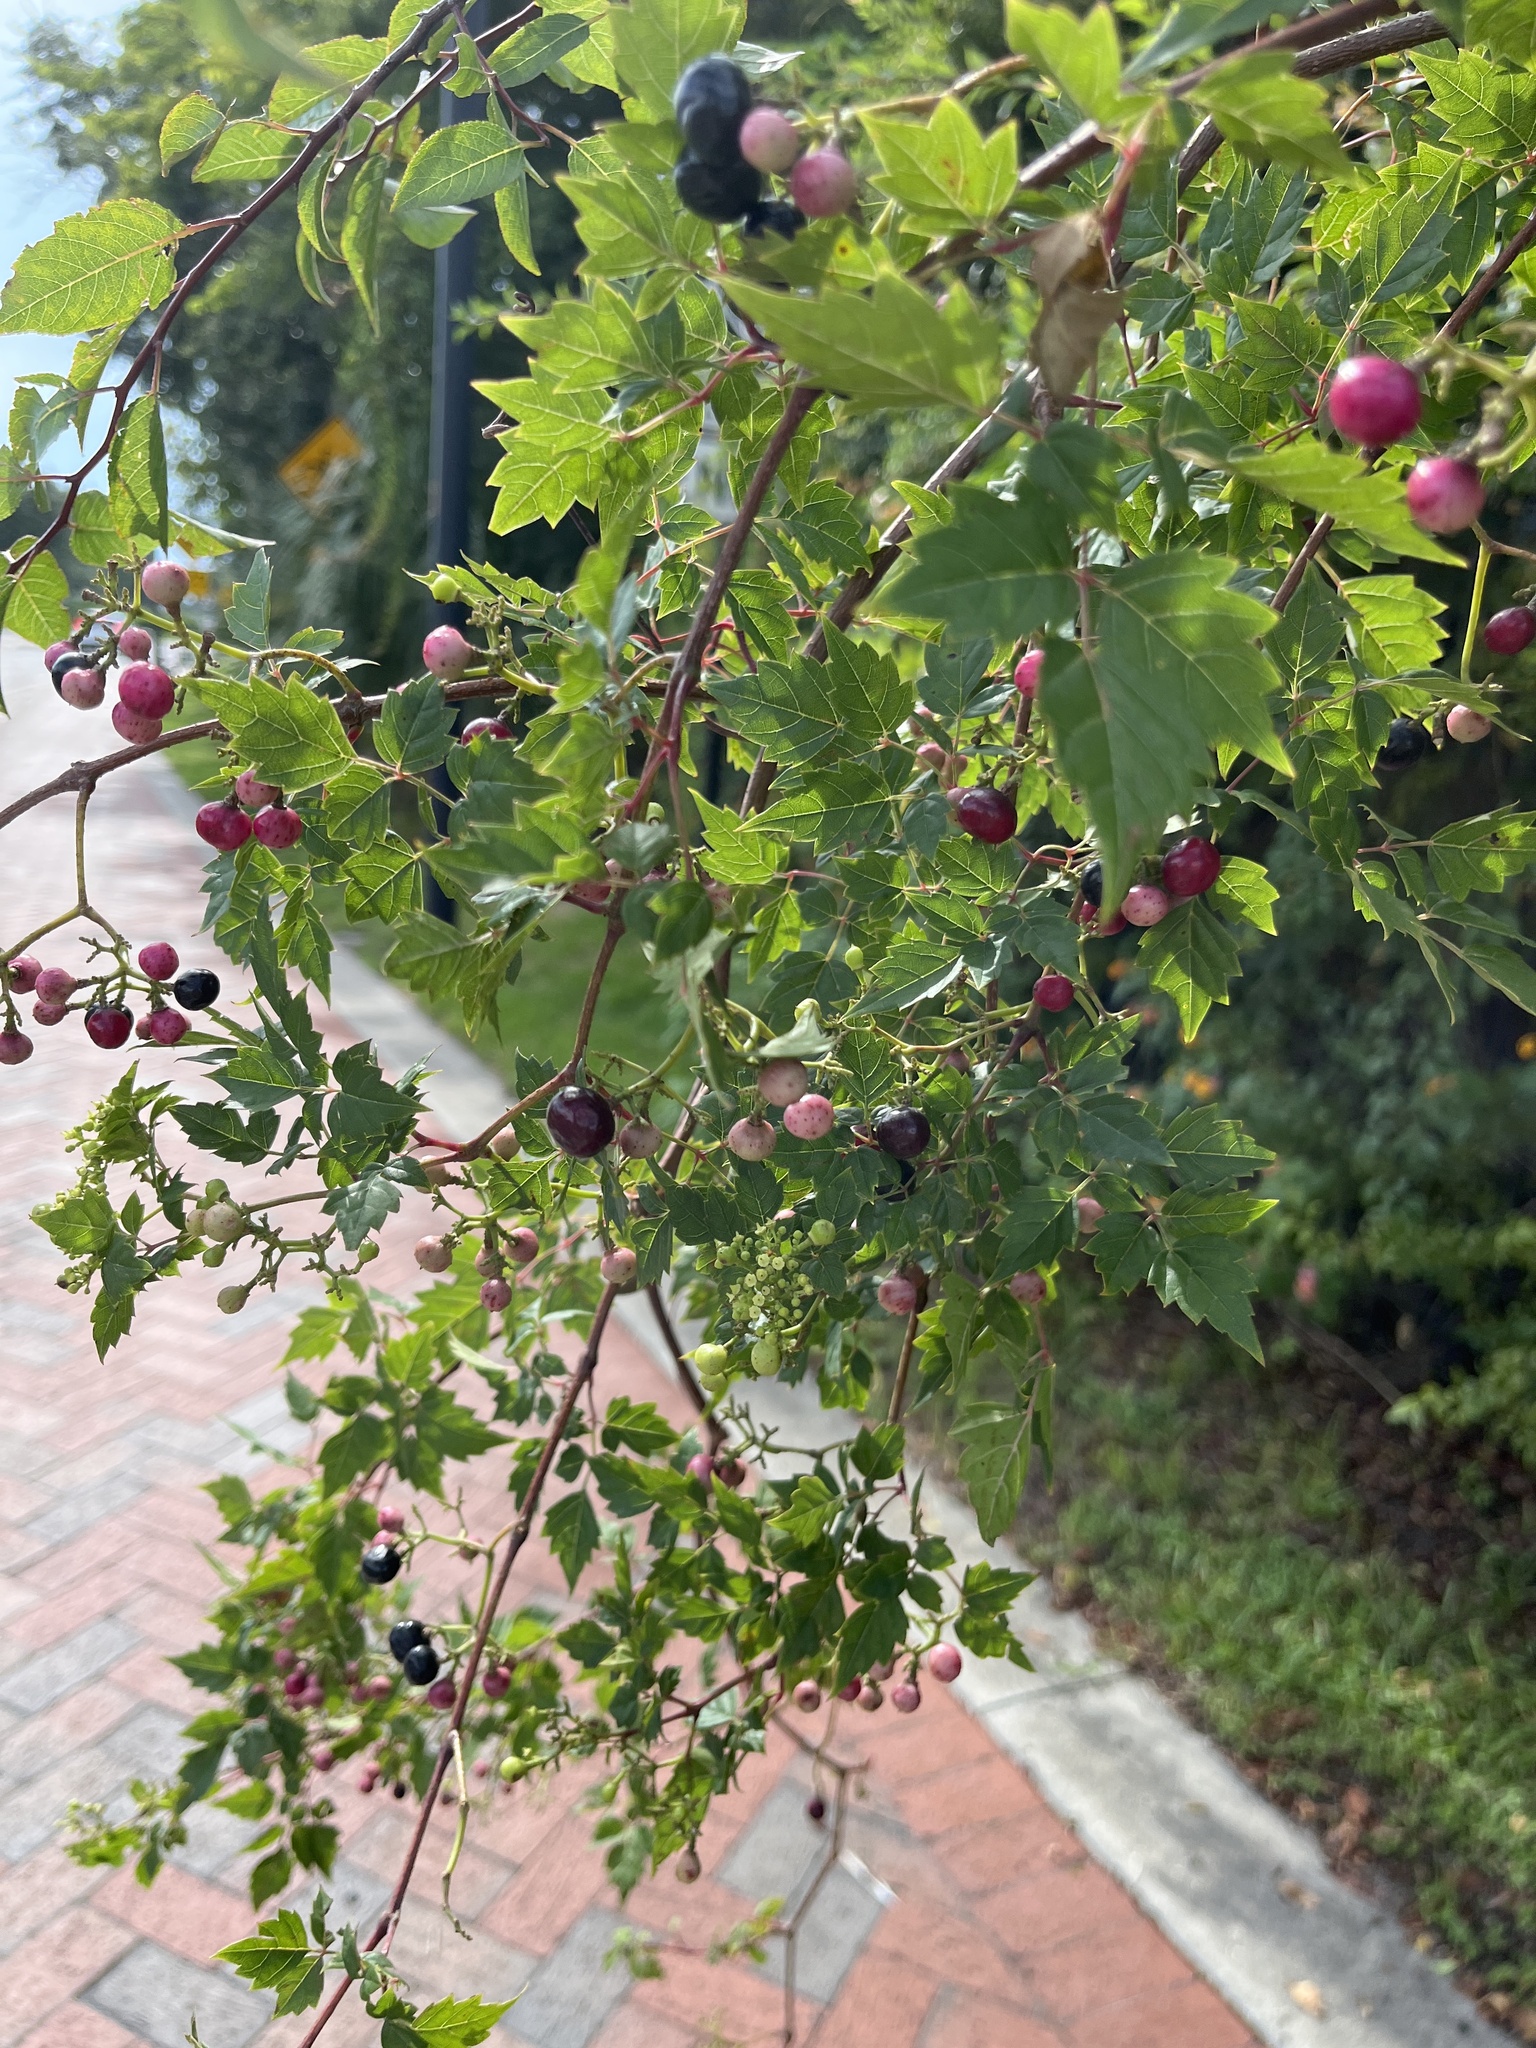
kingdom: Plantae
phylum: Tracheophyta
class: Magnoliopsida
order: Vitales
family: Vitaceae
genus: Nekemias
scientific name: Nekemias arborea
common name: Peppervine
